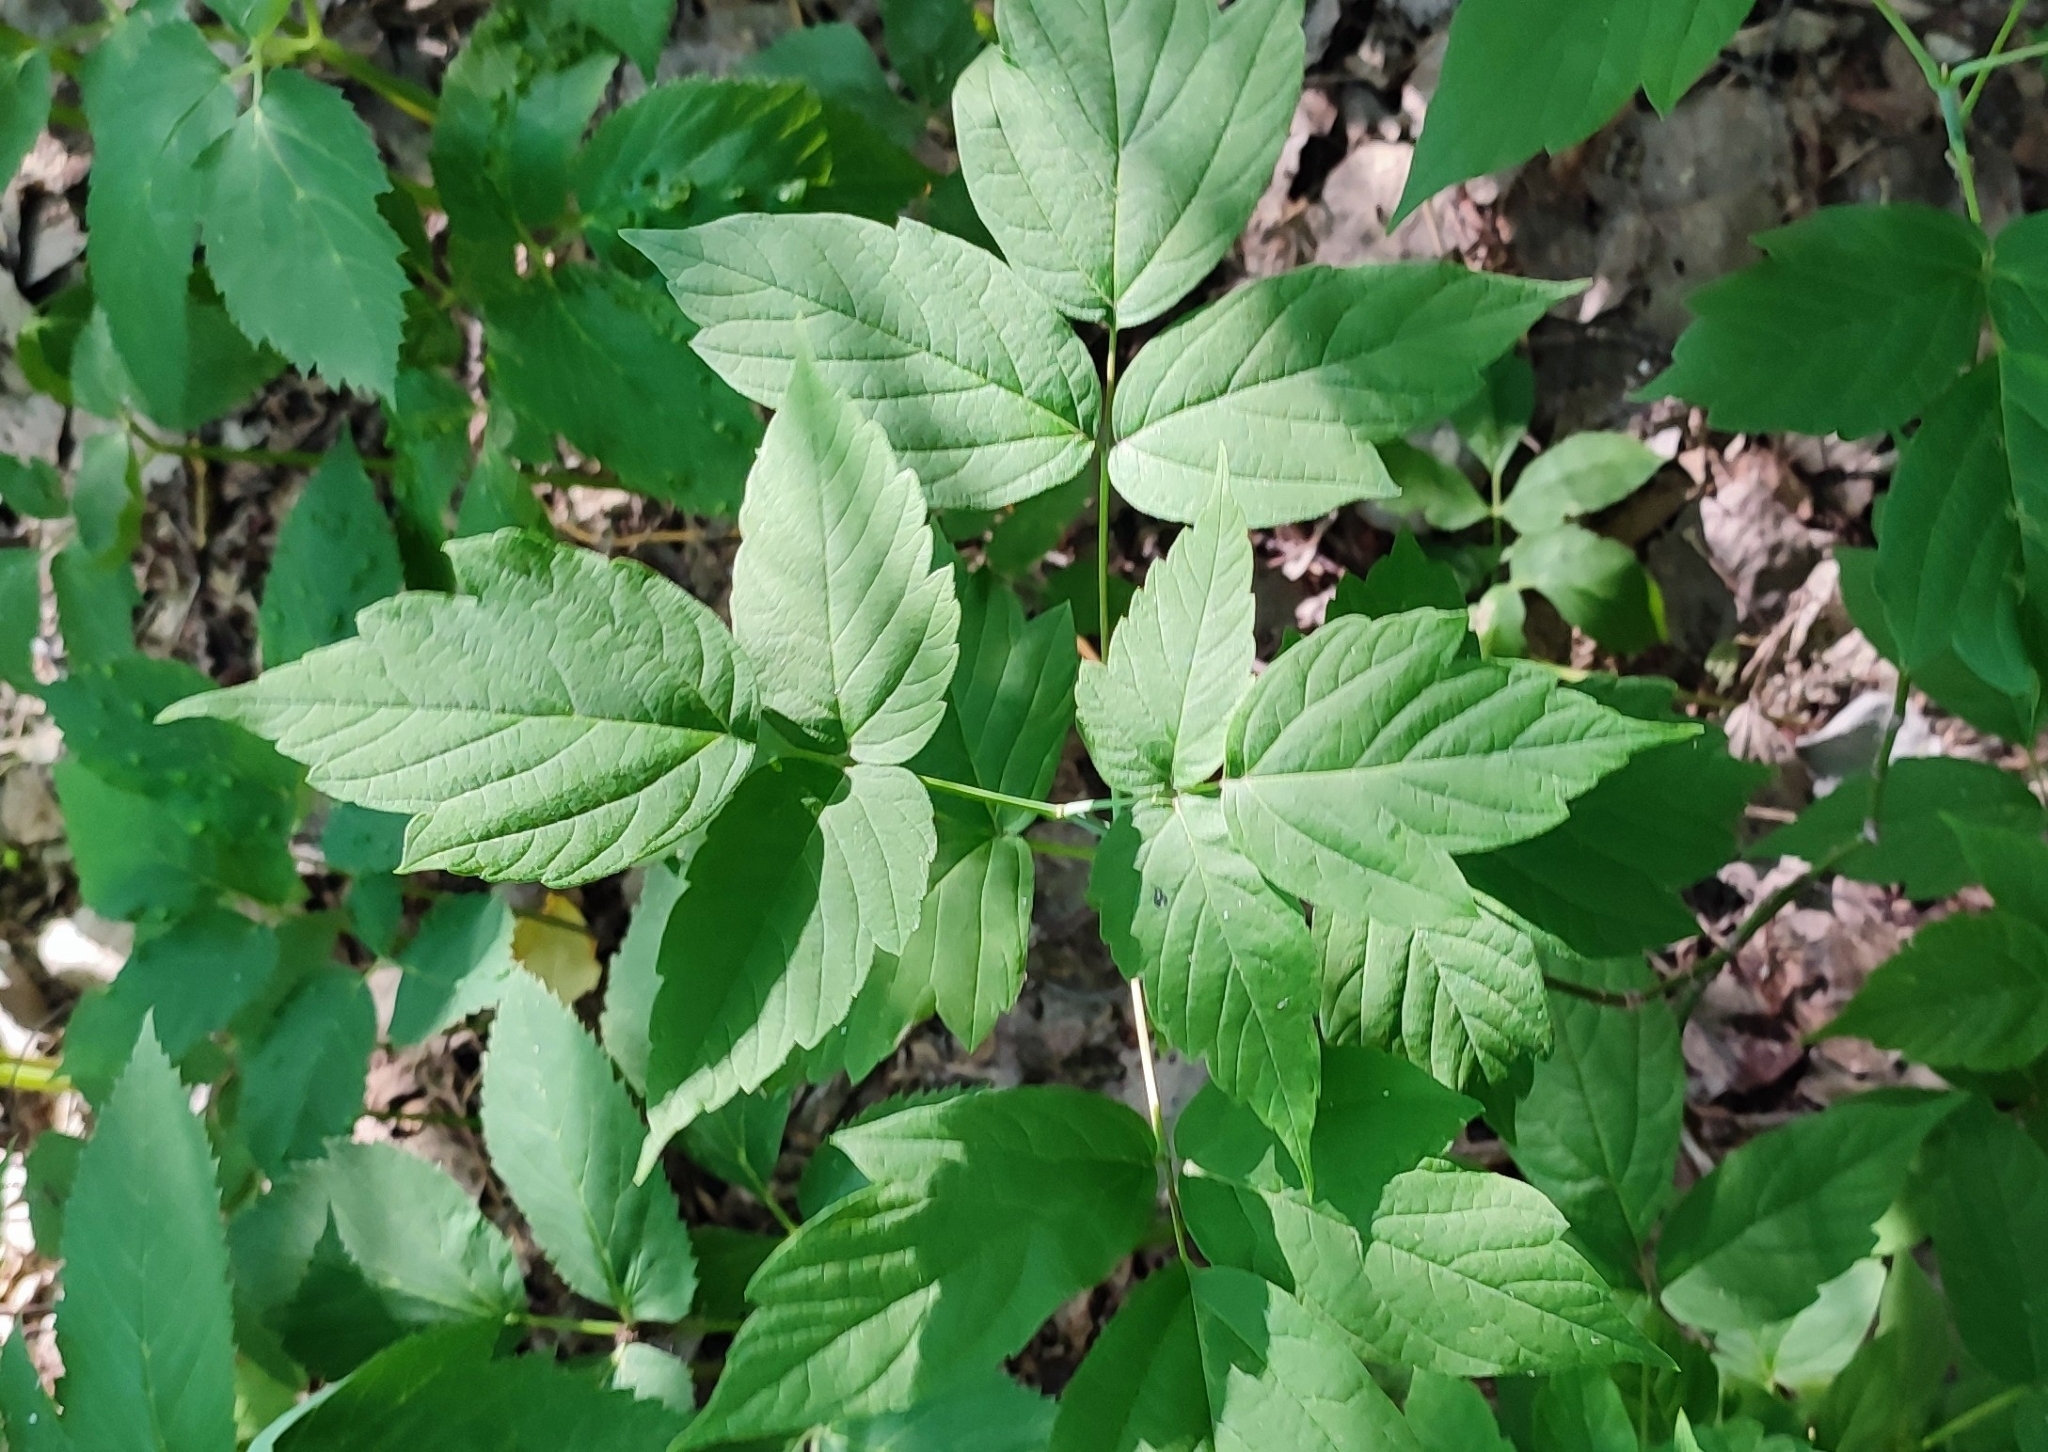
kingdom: Plantae
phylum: Tracheophyta
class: Magnoliopsida
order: Sapindales
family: Sapindaceae
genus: Acer
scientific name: Acer negundo
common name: Ashleaf maple
